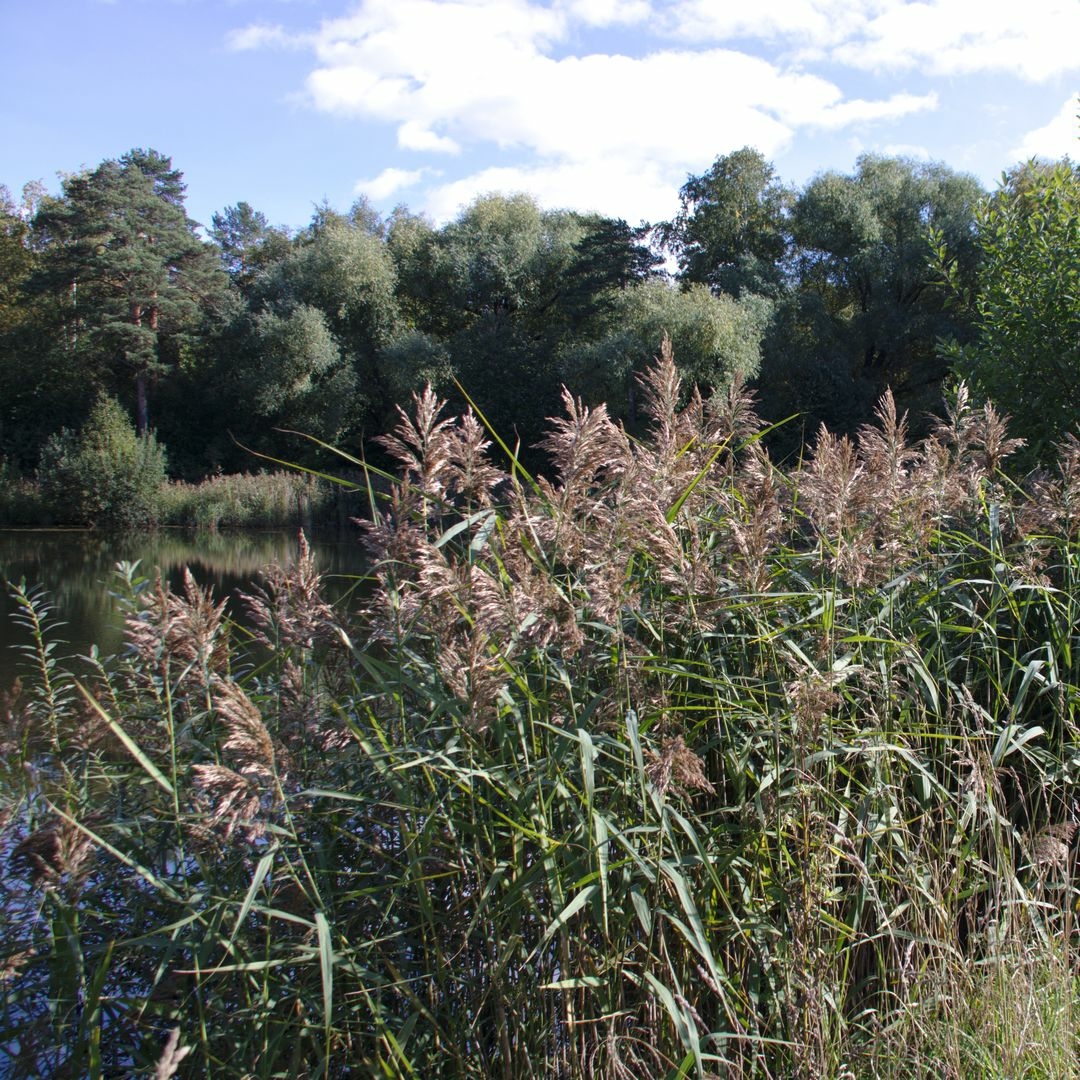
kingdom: Plantae
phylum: Tracheophyta
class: Liliopsida
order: Poales
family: Poaceae
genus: Phragmites
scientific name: Phragmites australis
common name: Common reed
